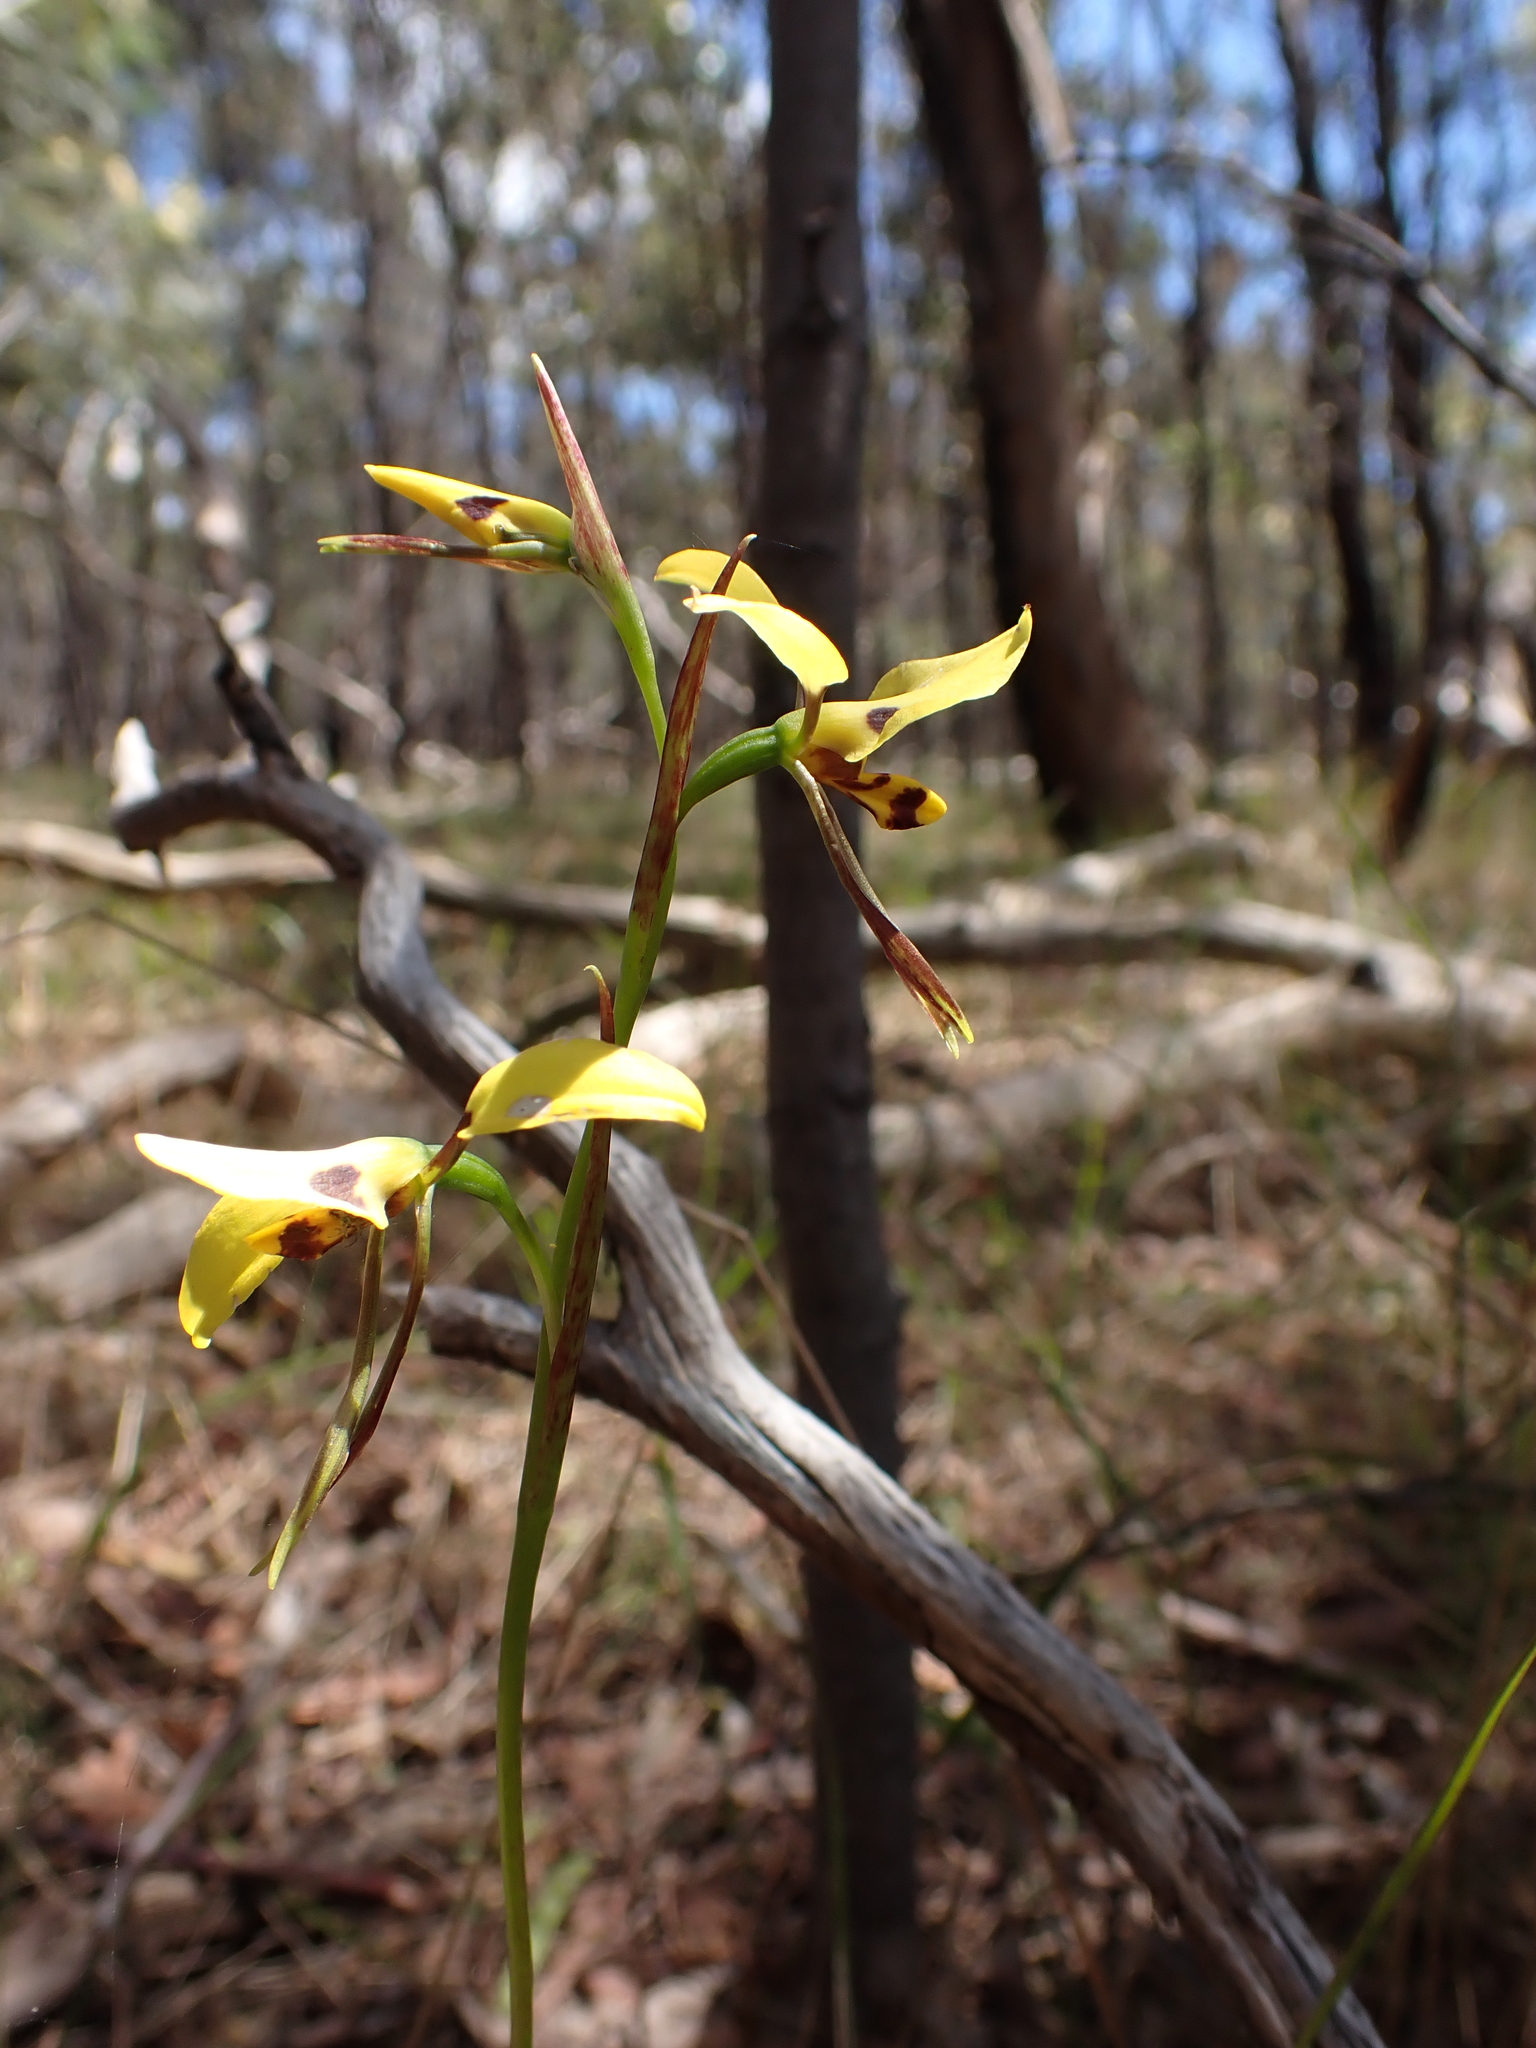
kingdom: Plantae
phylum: Tracheophyta
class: Liliopsida
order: Asparagales
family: Orchidaceae
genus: Diuris
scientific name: Diuris sulphurea
